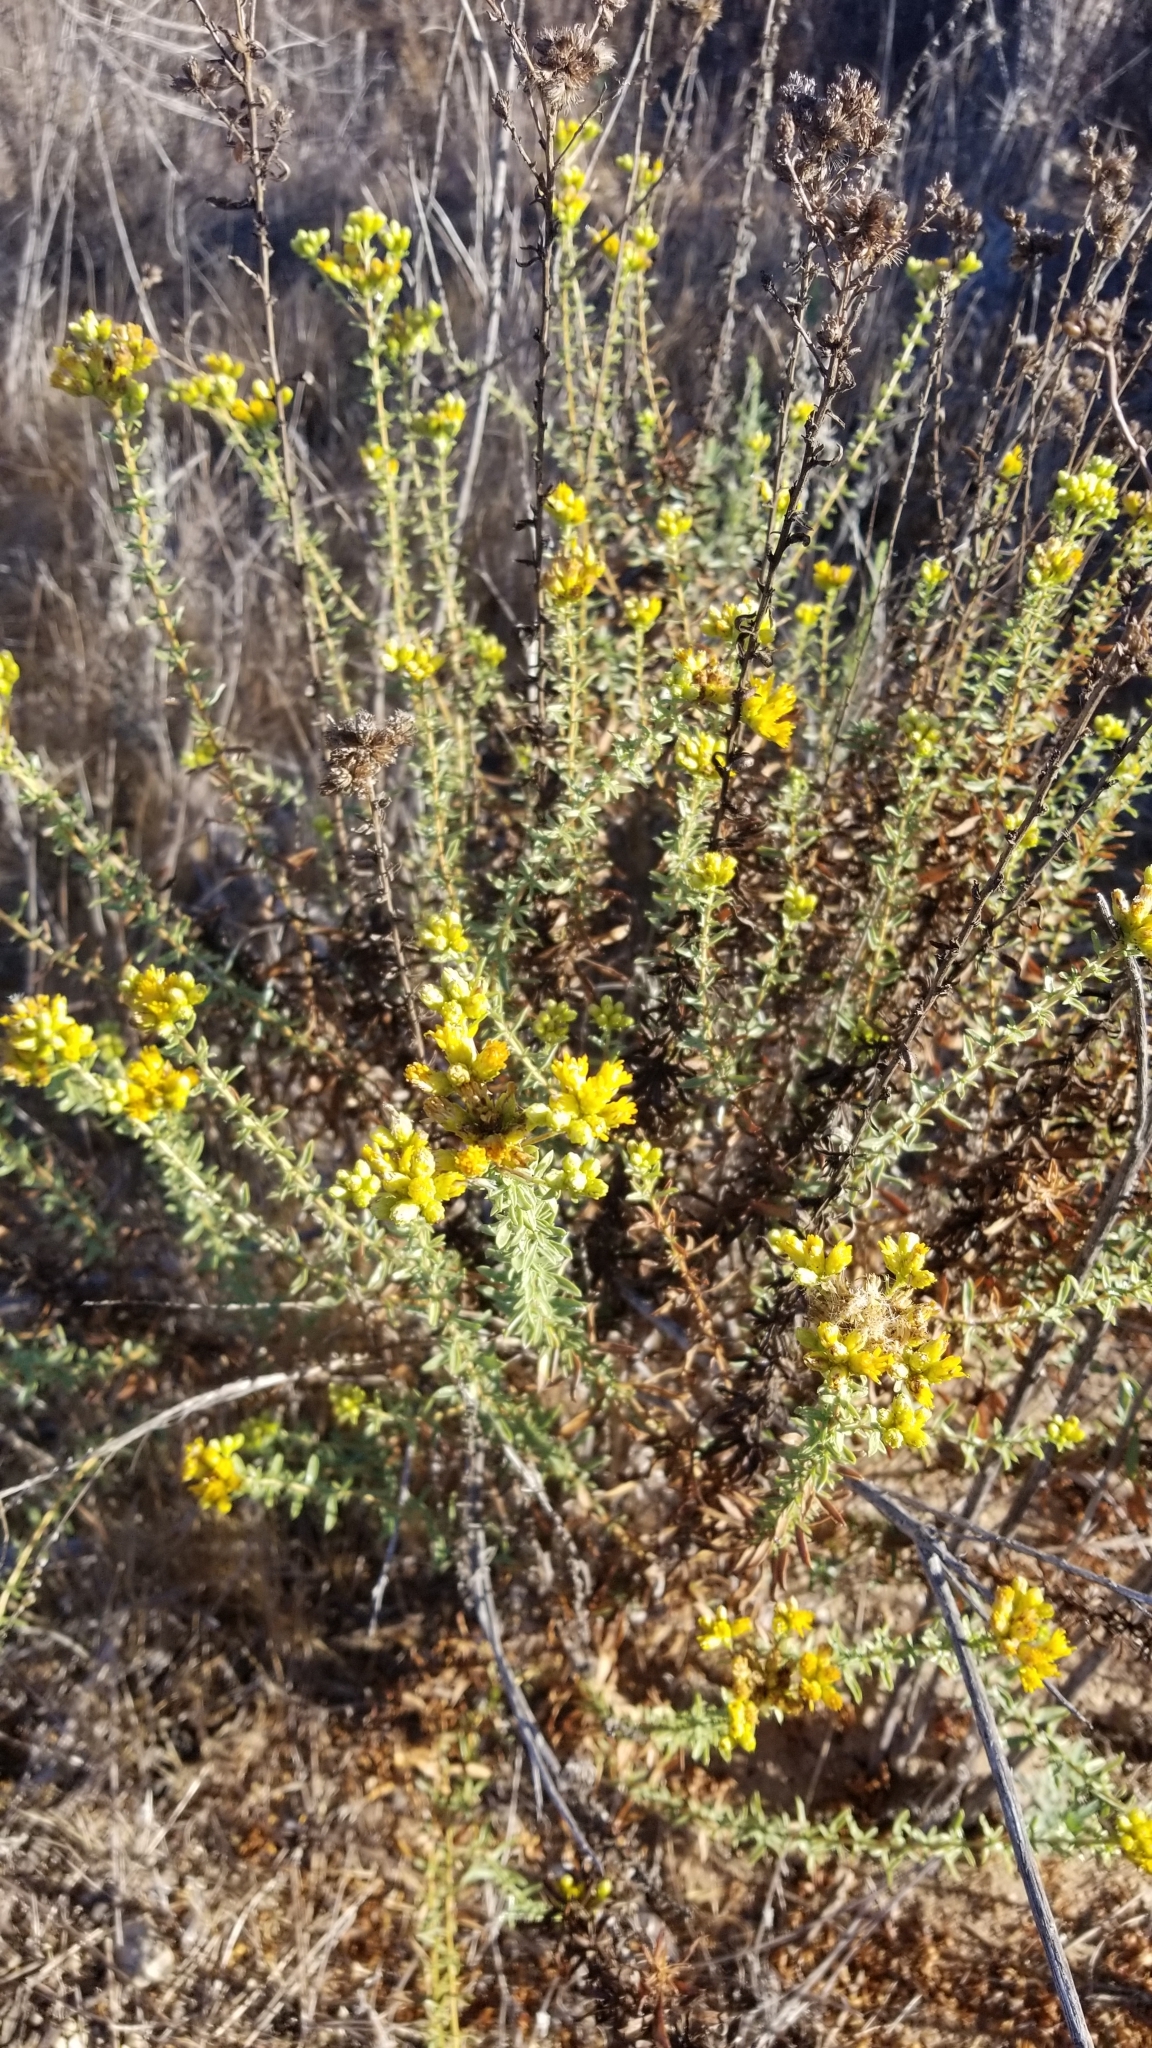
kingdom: Plantae
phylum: Tracheophyta
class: Magnoliopsida
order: Asterales
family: Asteraceae
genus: Isocoma
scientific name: Isocoma menziesii
